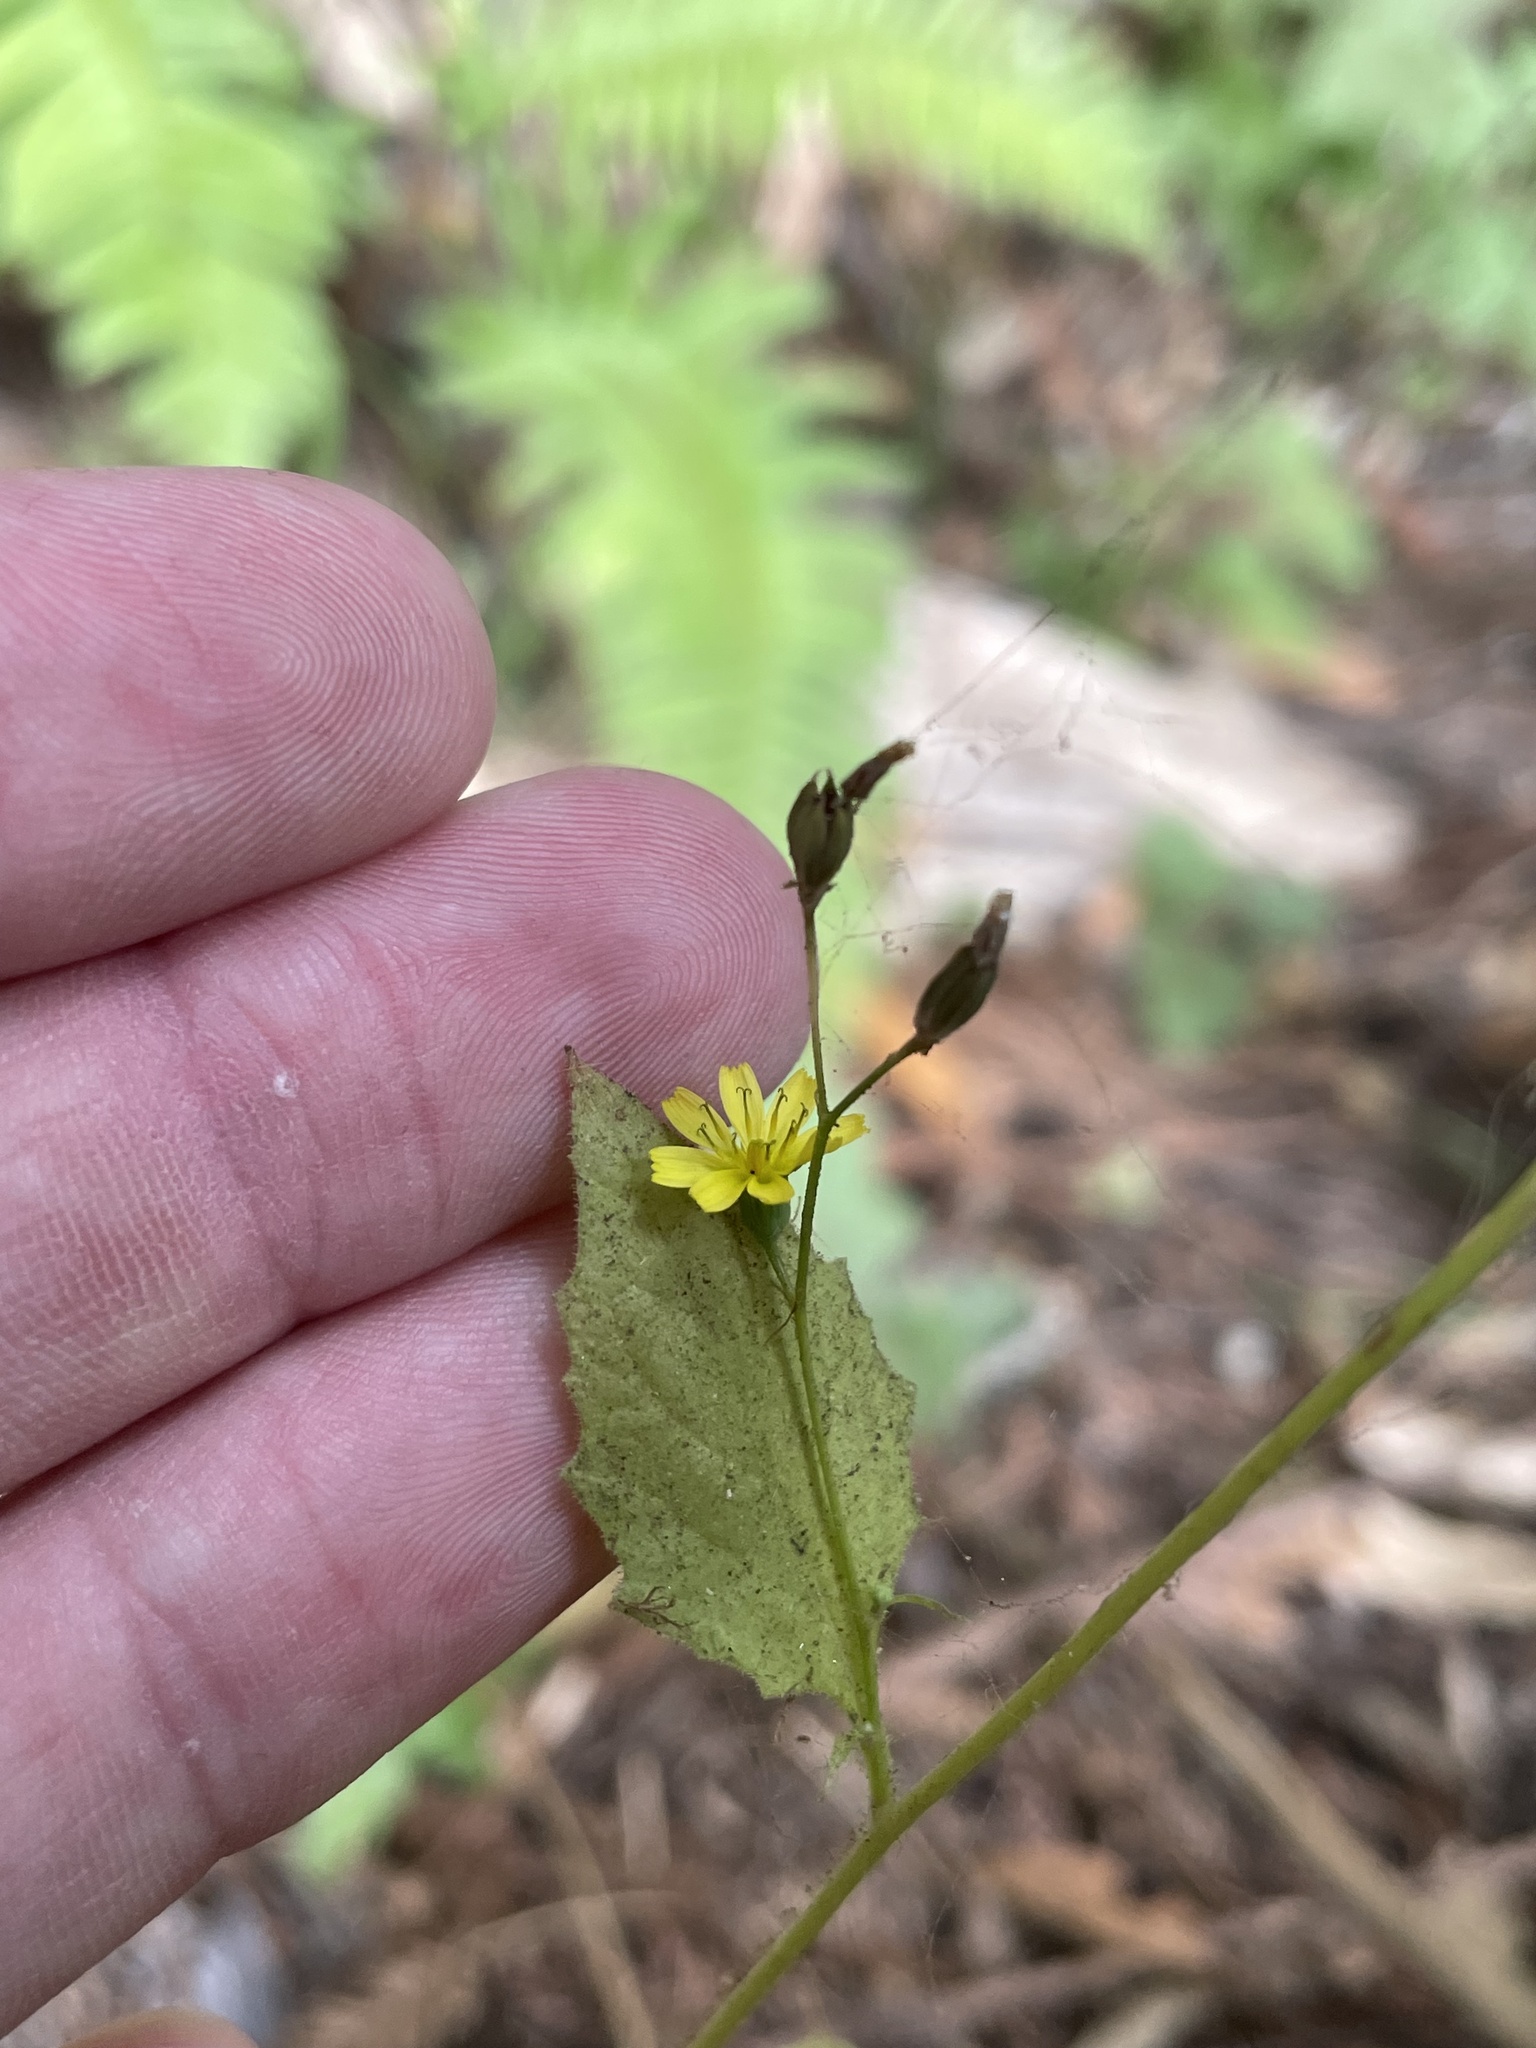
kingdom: Plantae
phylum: Tracheophyta
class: Magnoliopsida
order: Asterales
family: Asteraceae
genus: Lapsana
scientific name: Lapsana communis
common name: Nipplewort
